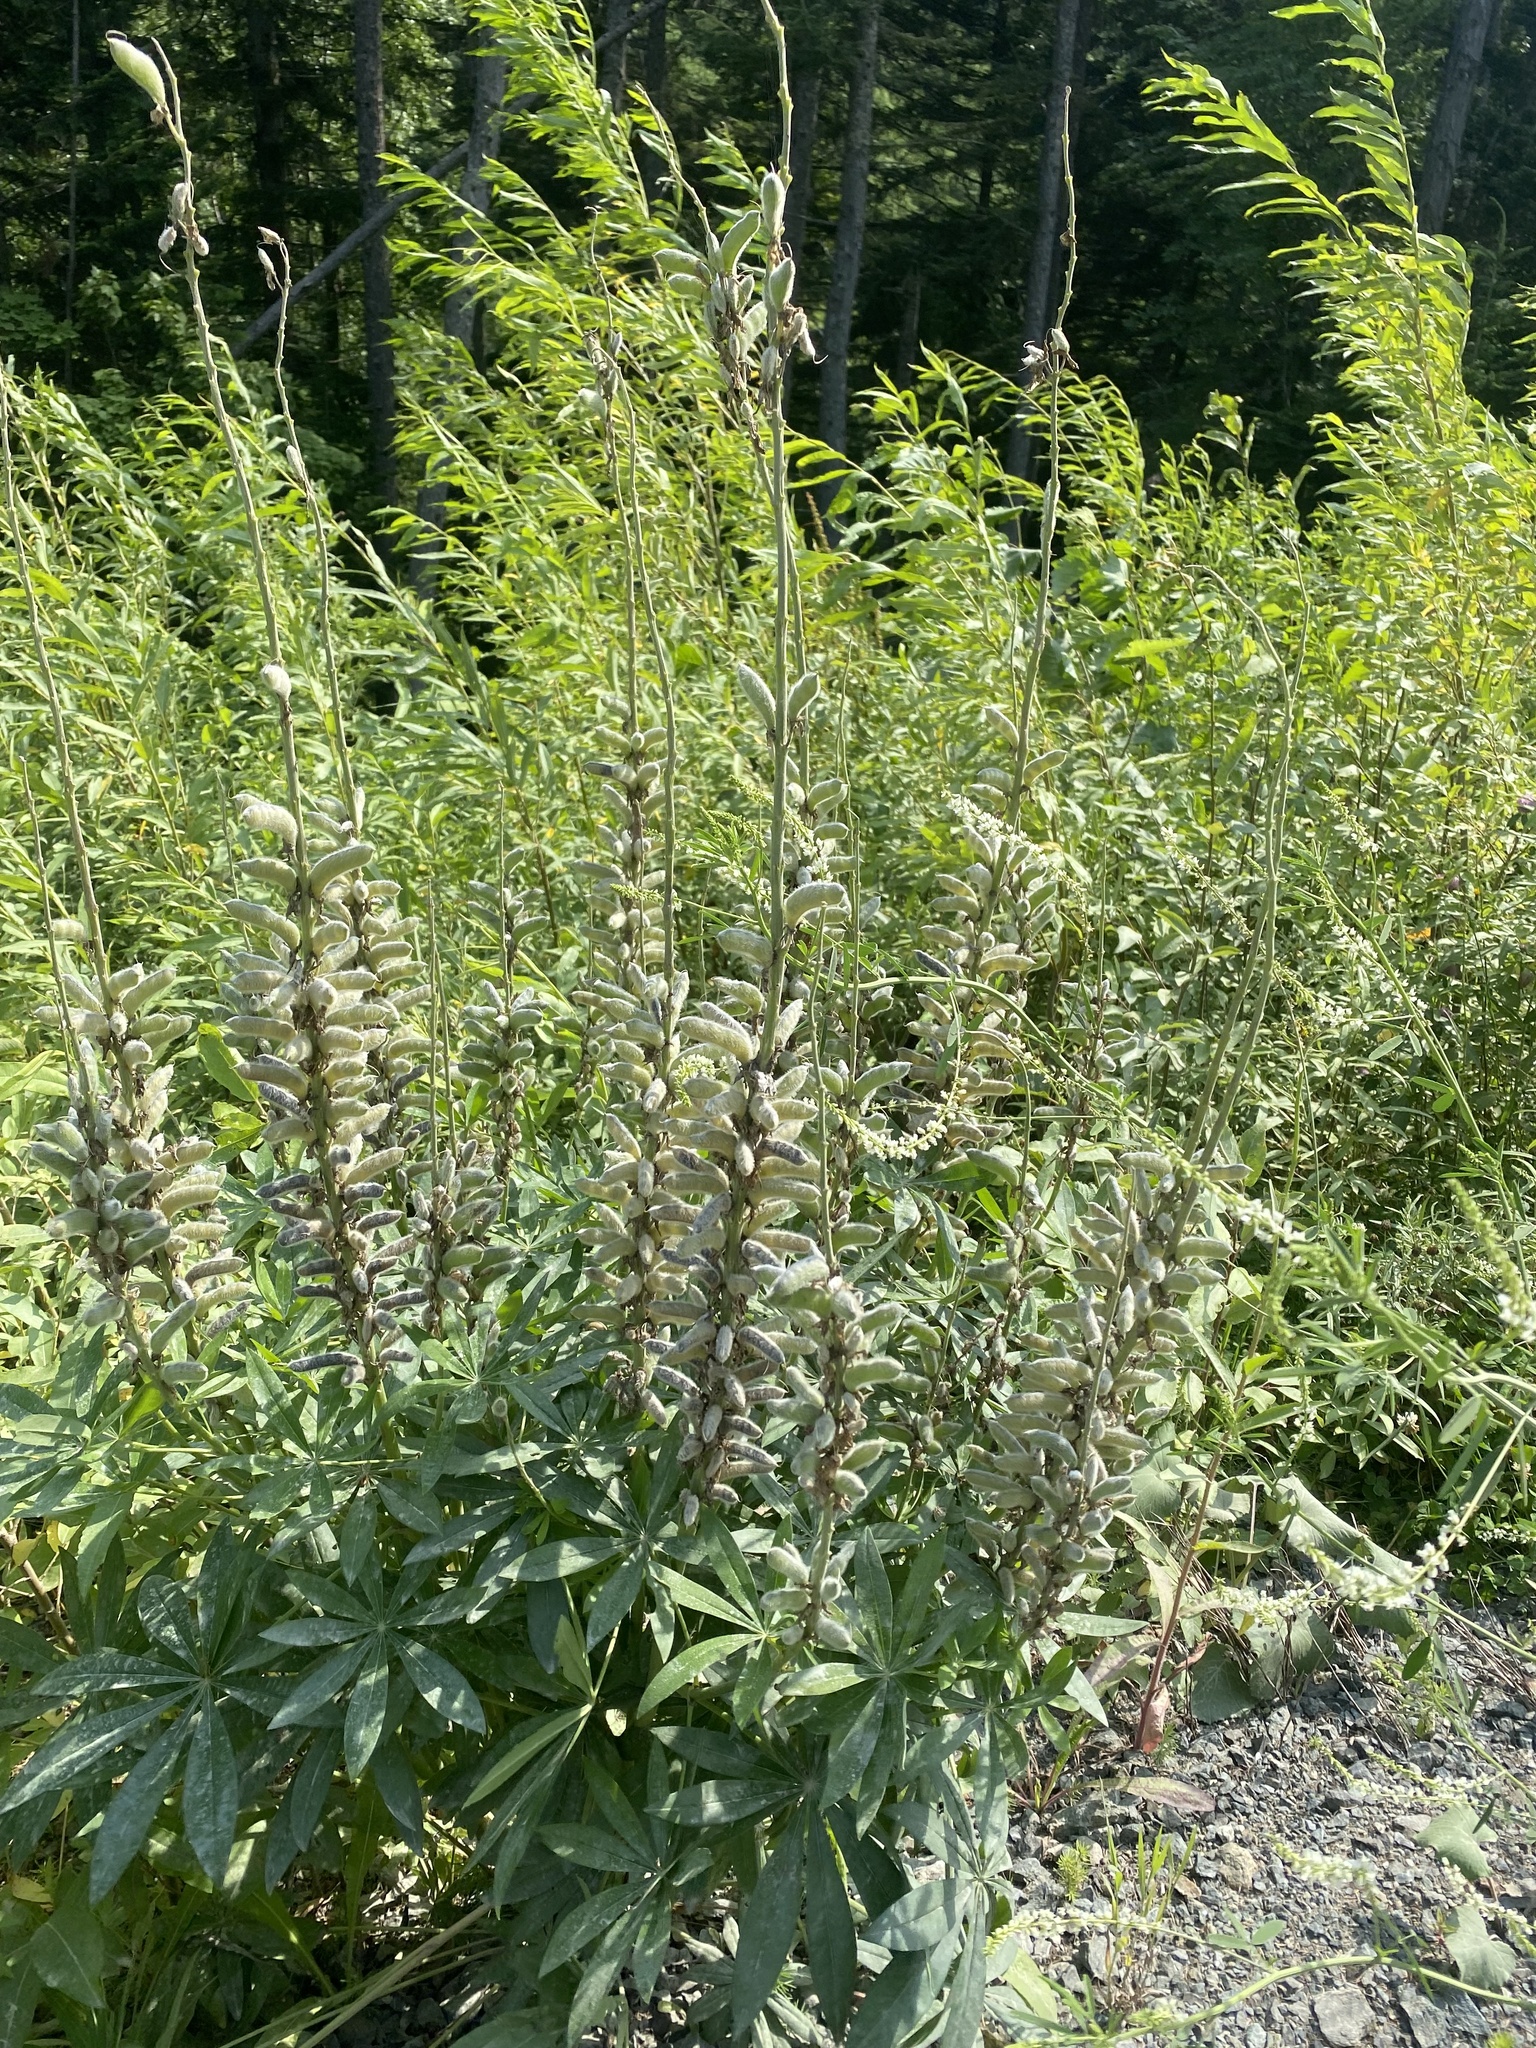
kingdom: Plantae
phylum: Tracheophyta
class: Magnoliopsida
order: Fabales
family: Fabaceae
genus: Lupinus
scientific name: Lupinus polyphyllus
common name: Garden lupin
